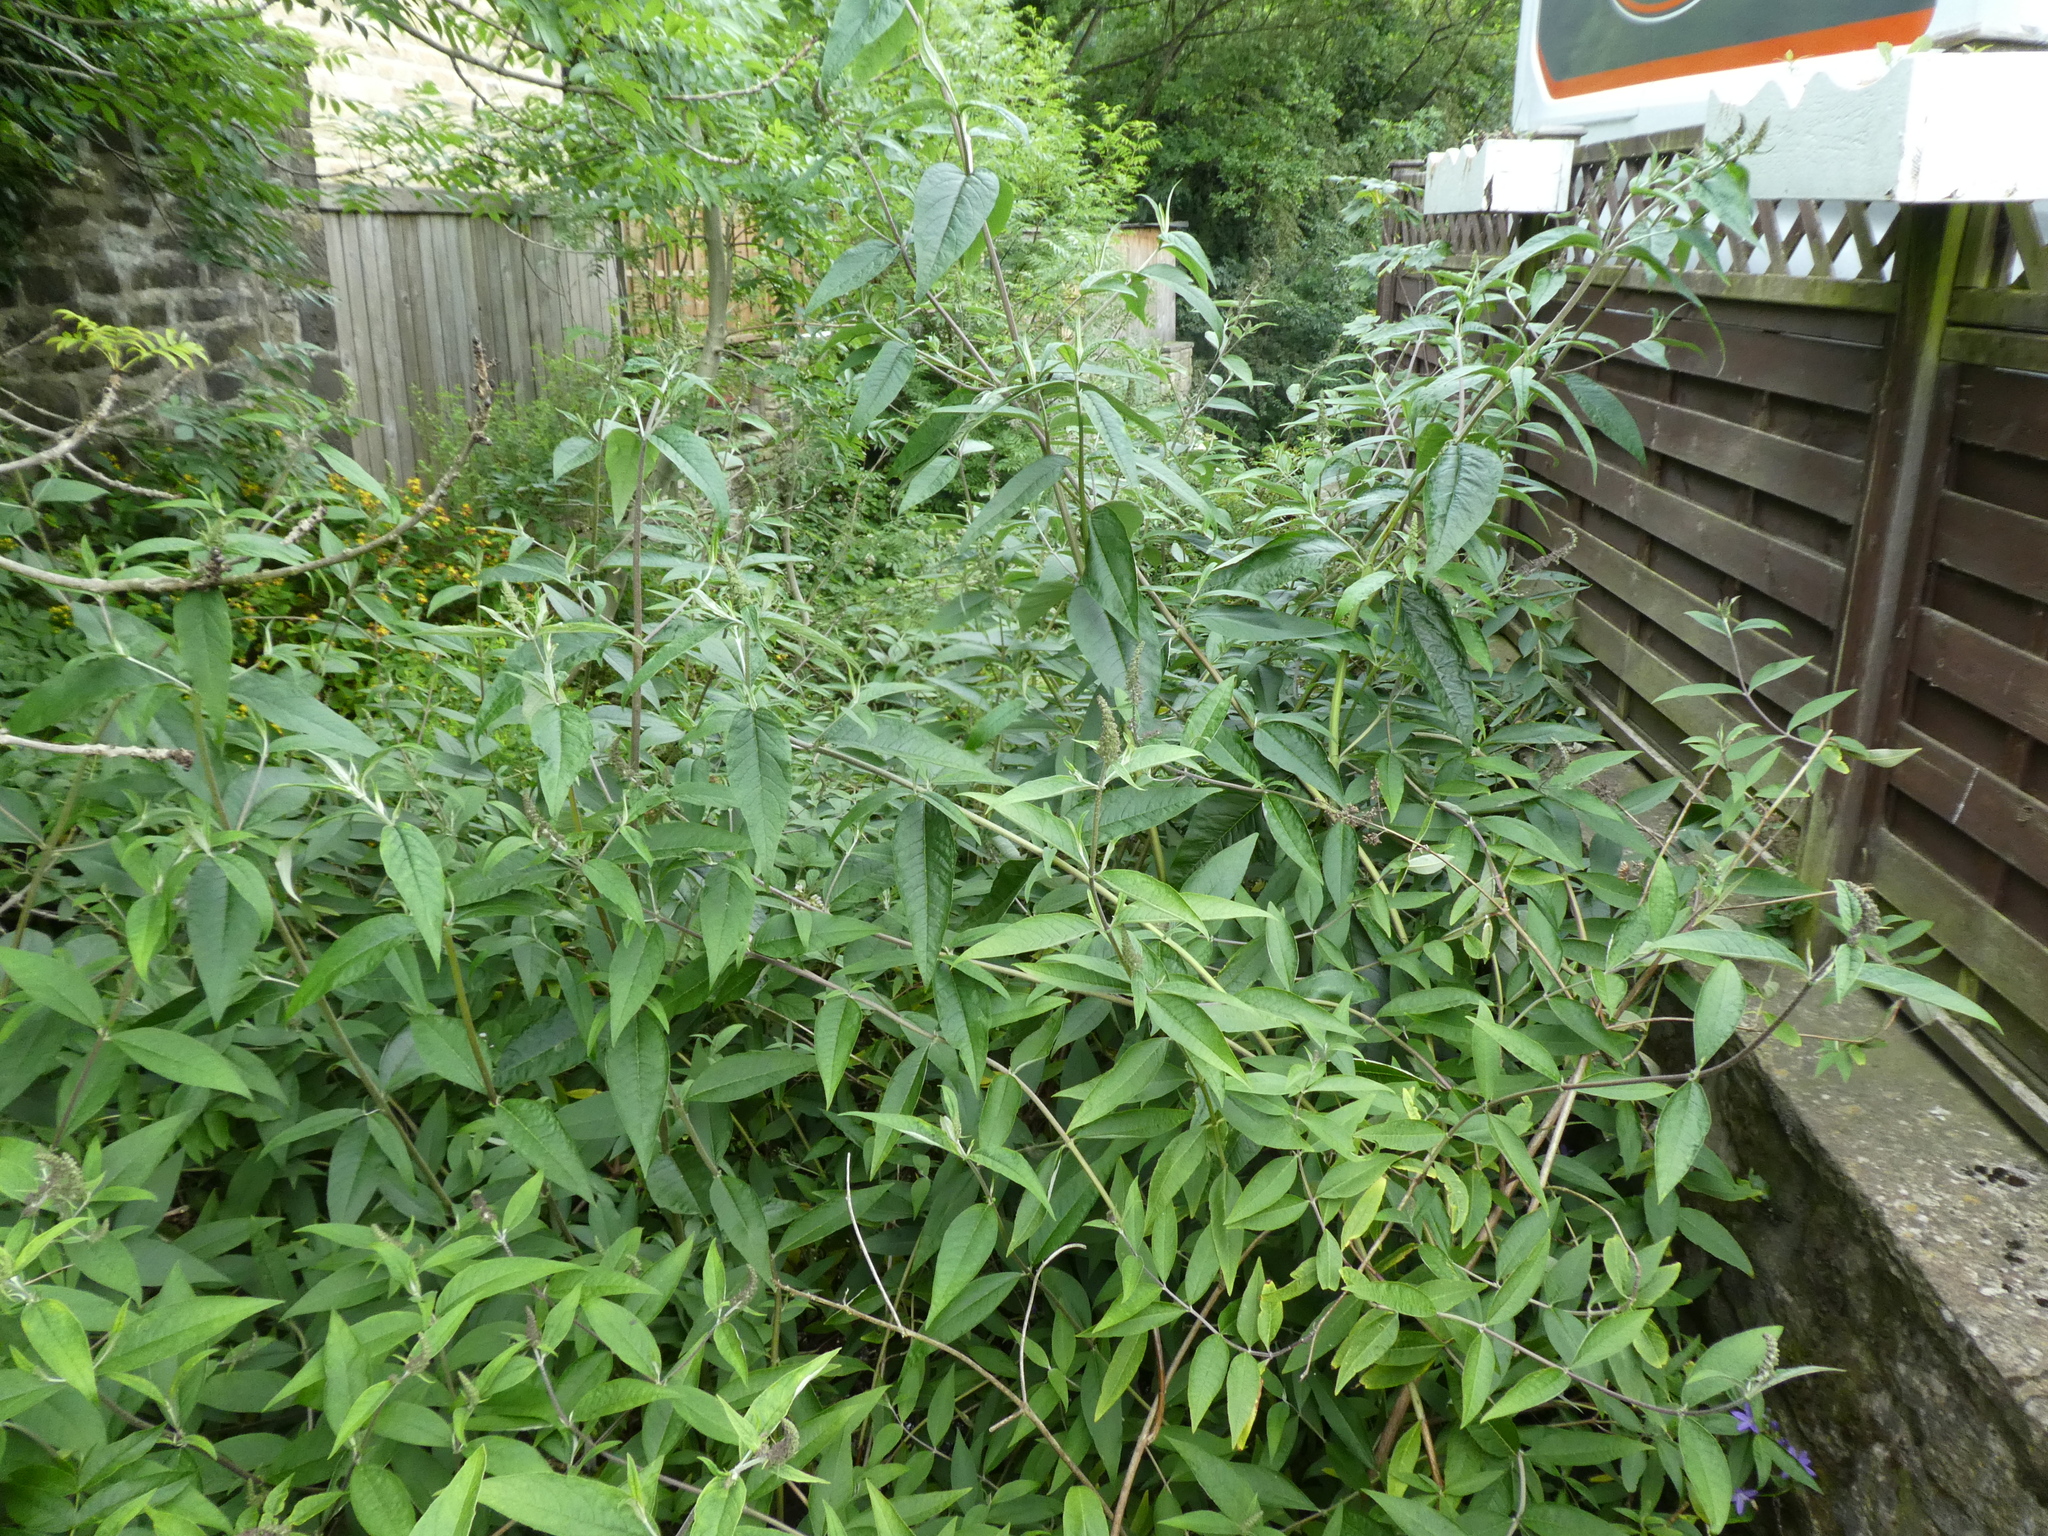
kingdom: Plantae
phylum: Tracheophyta
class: Magnoliopsida
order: Lamiales
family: Scrophulariaceae
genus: Buddleja
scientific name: Buddleja davidii
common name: Butterfly-bush
